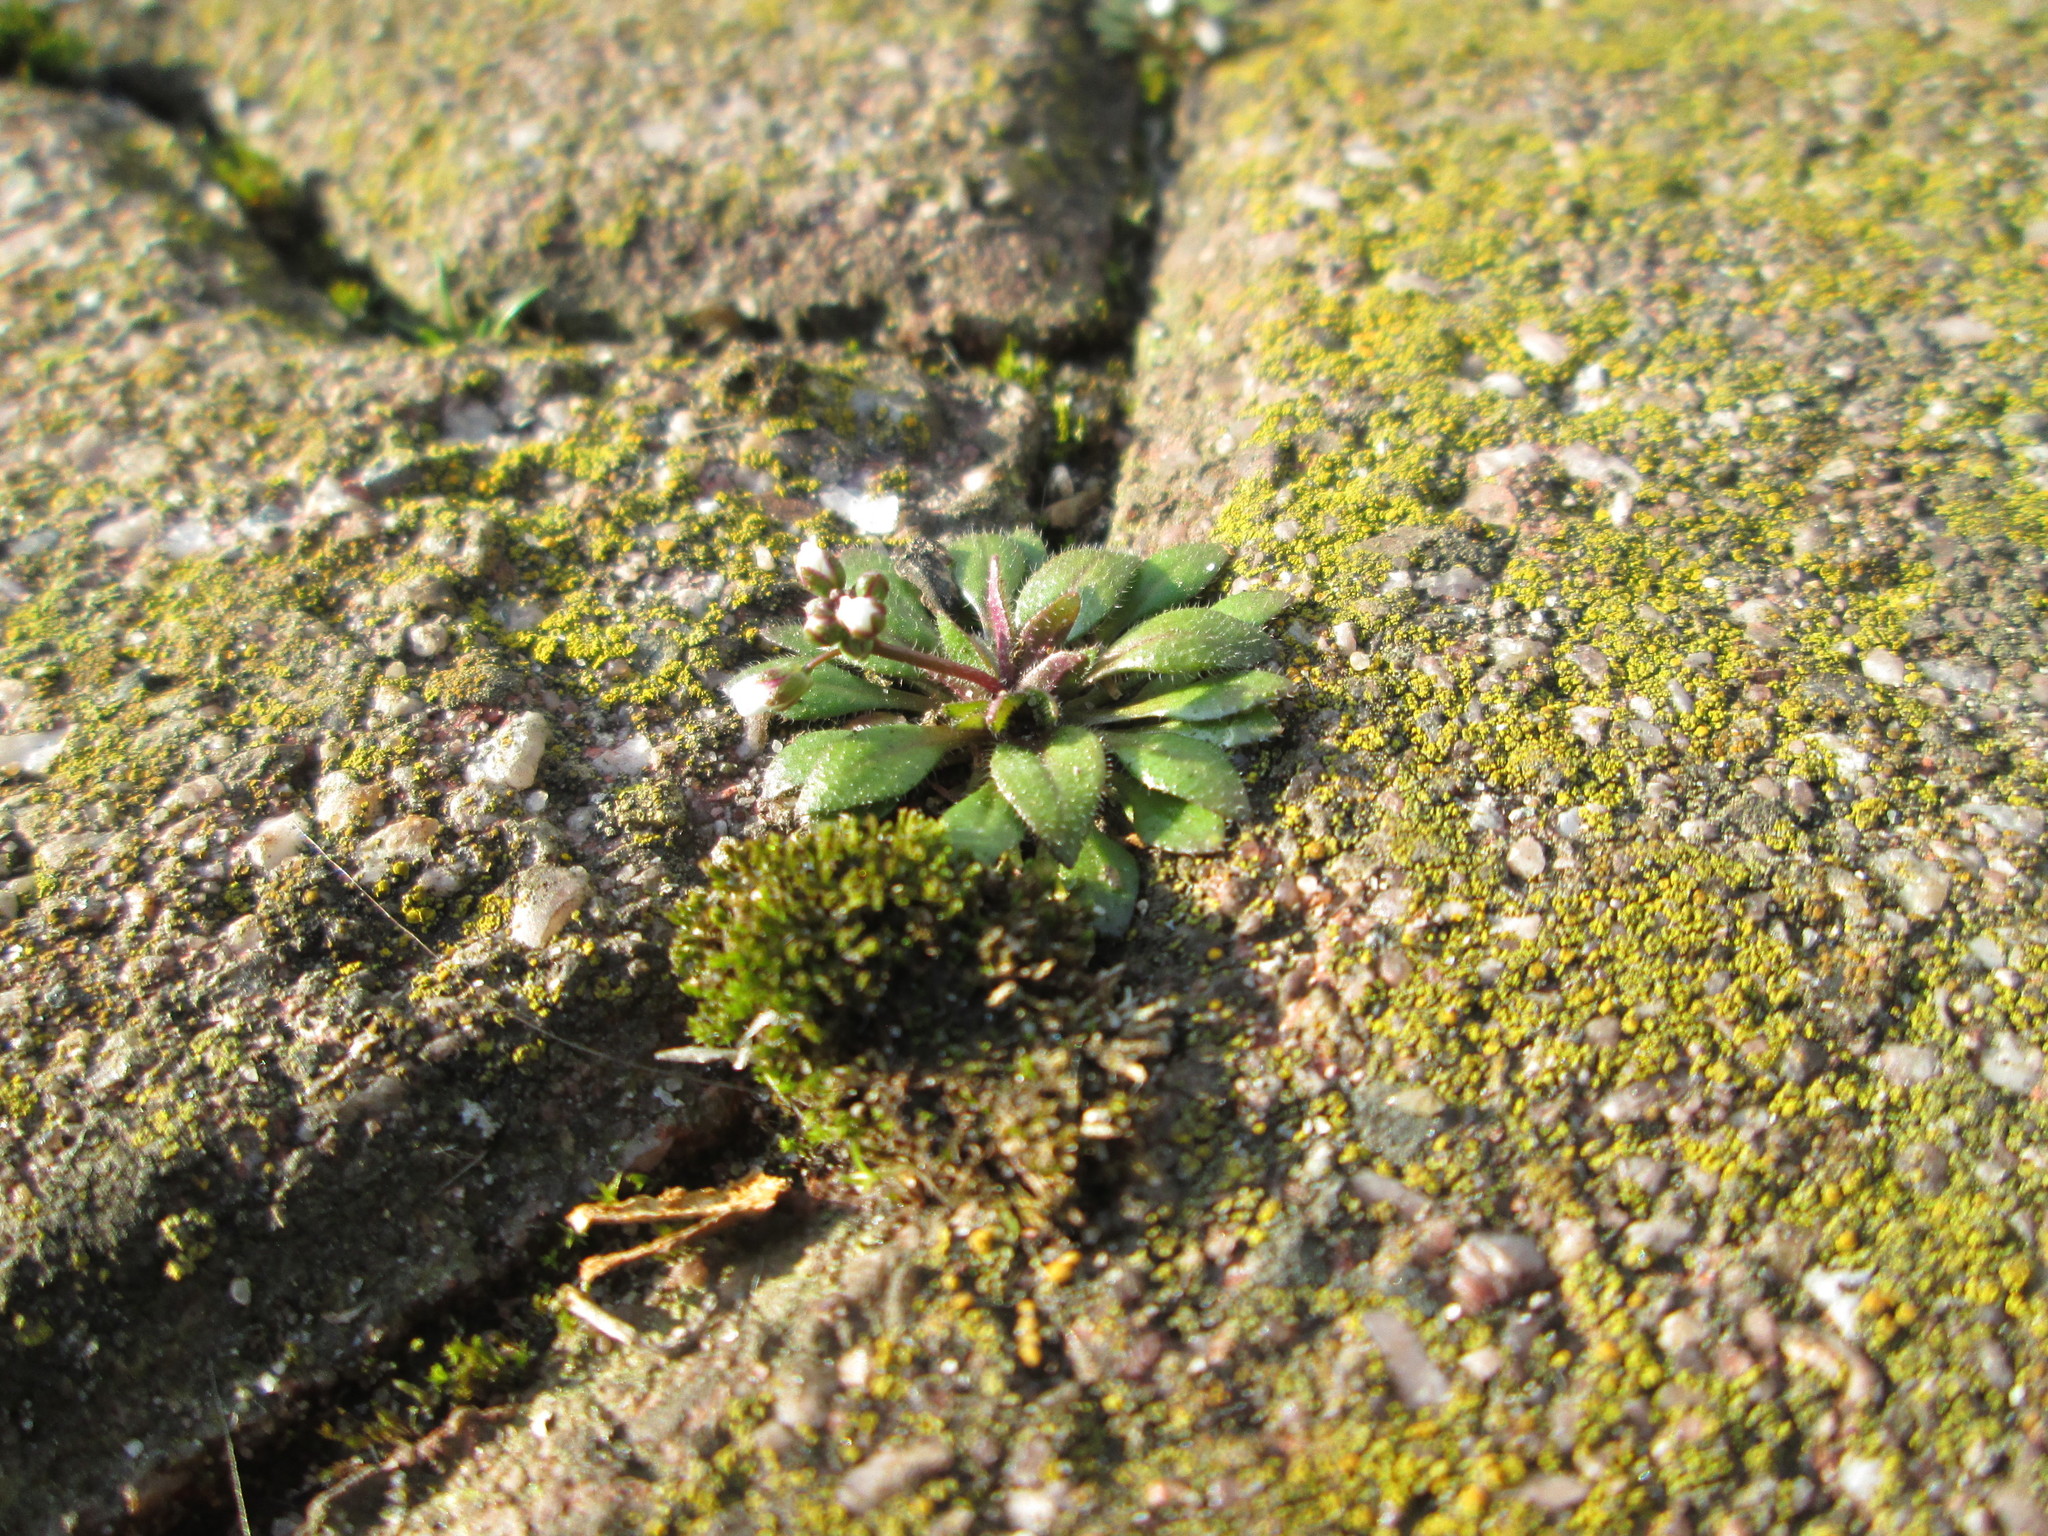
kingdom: Plantae
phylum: Tracheophyta
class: Magnoliopsida
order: Brassicales
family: Brassicaceae
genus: Draba
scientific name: Draba verna
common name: Spring draba
